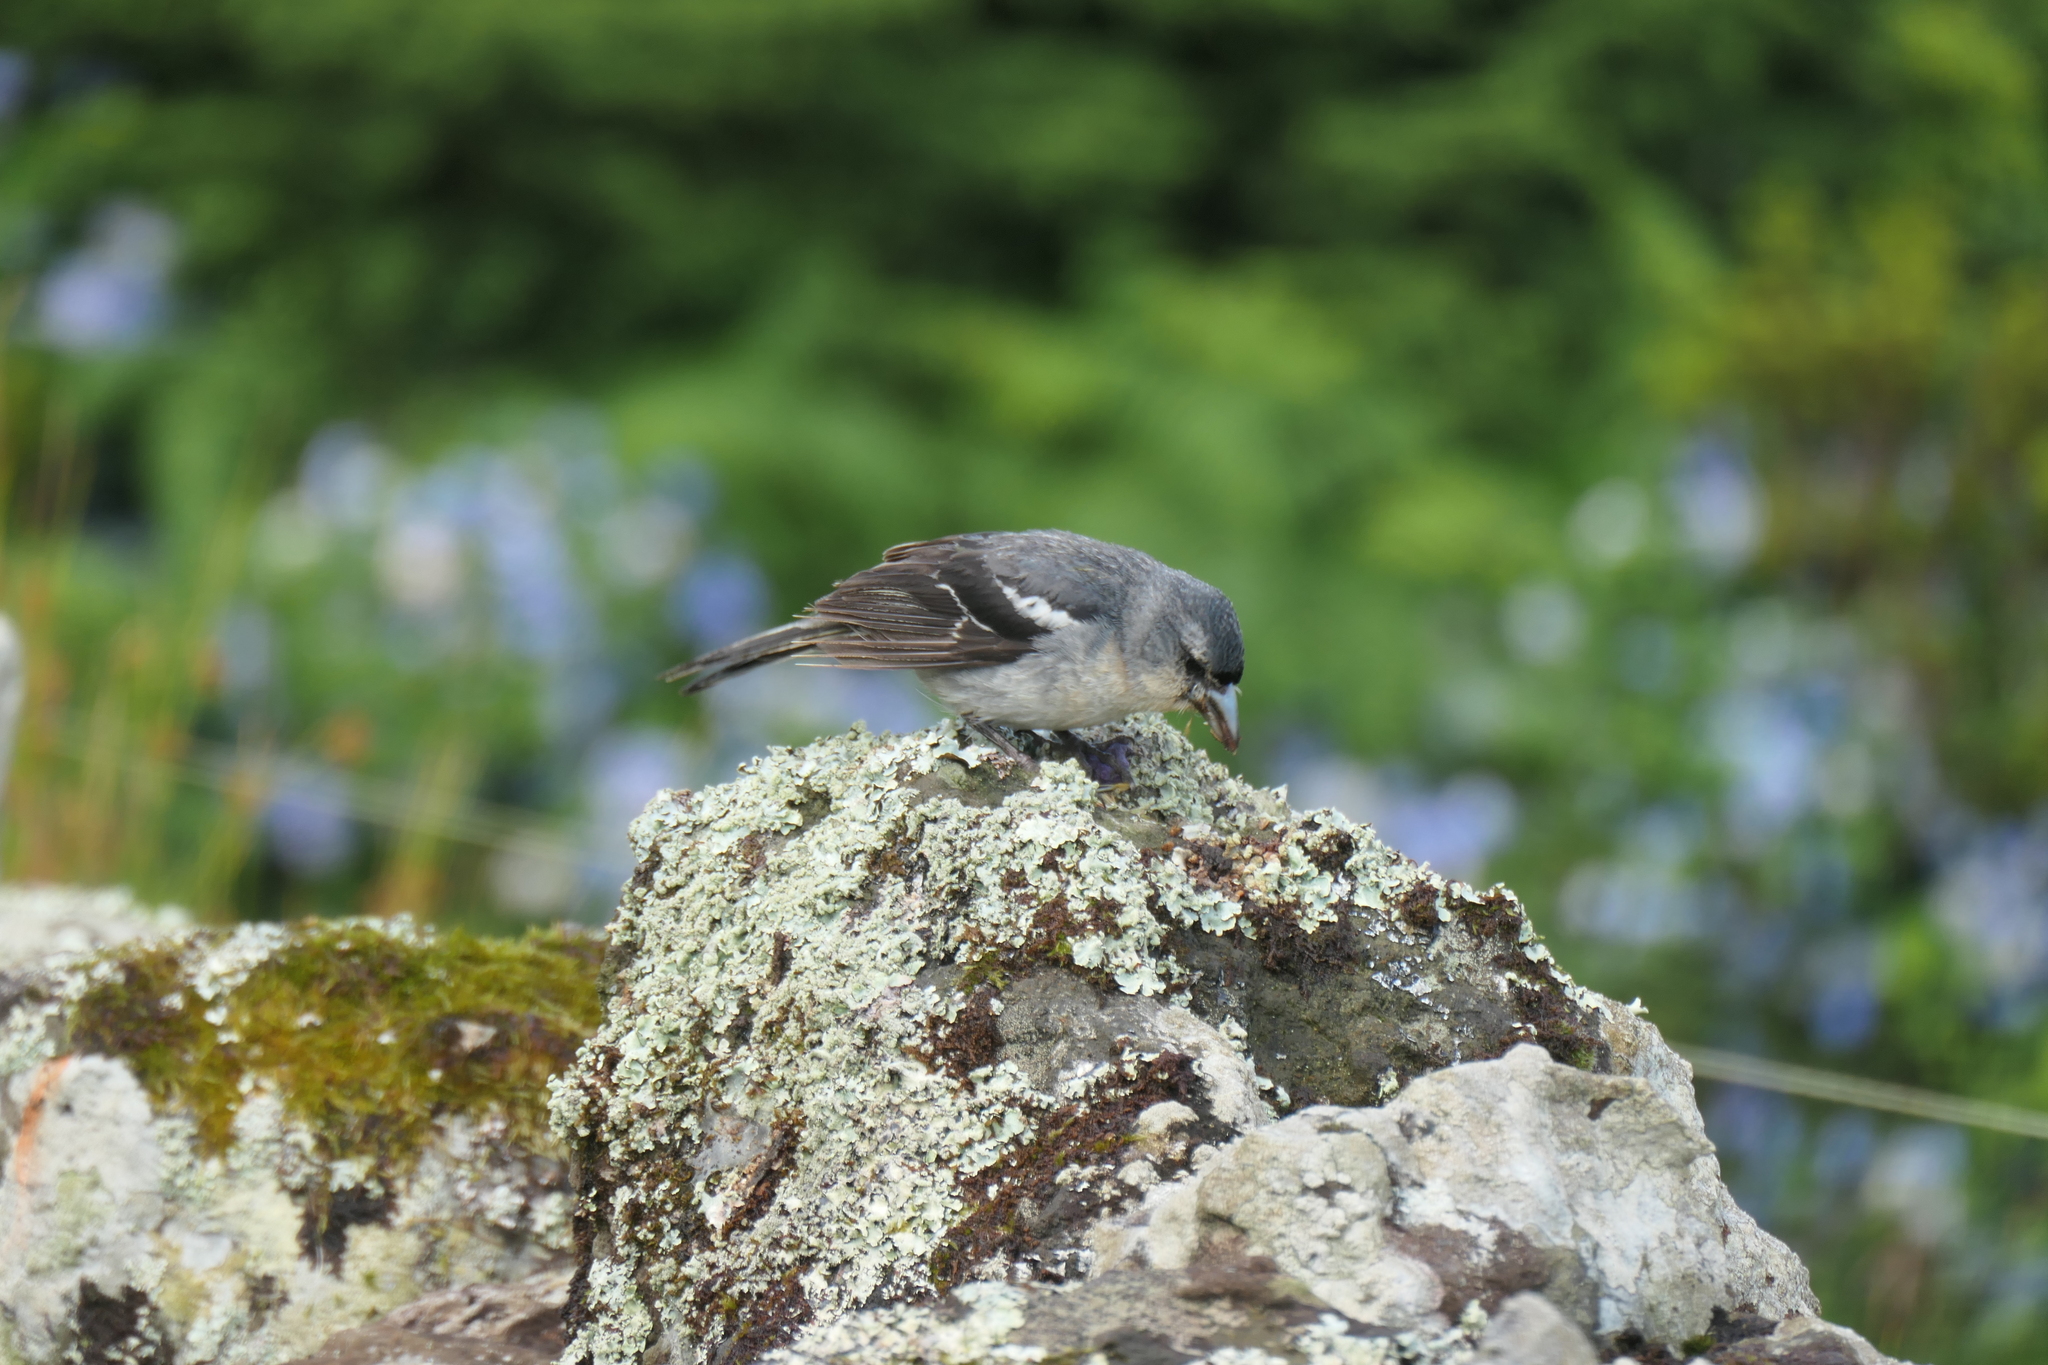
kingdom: Animalia
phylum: Chordata
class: Aves
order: Passeriformes
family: Fringillidae
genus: Fringilla
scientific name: Fringilla moreletti
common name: Azores chaffinch
